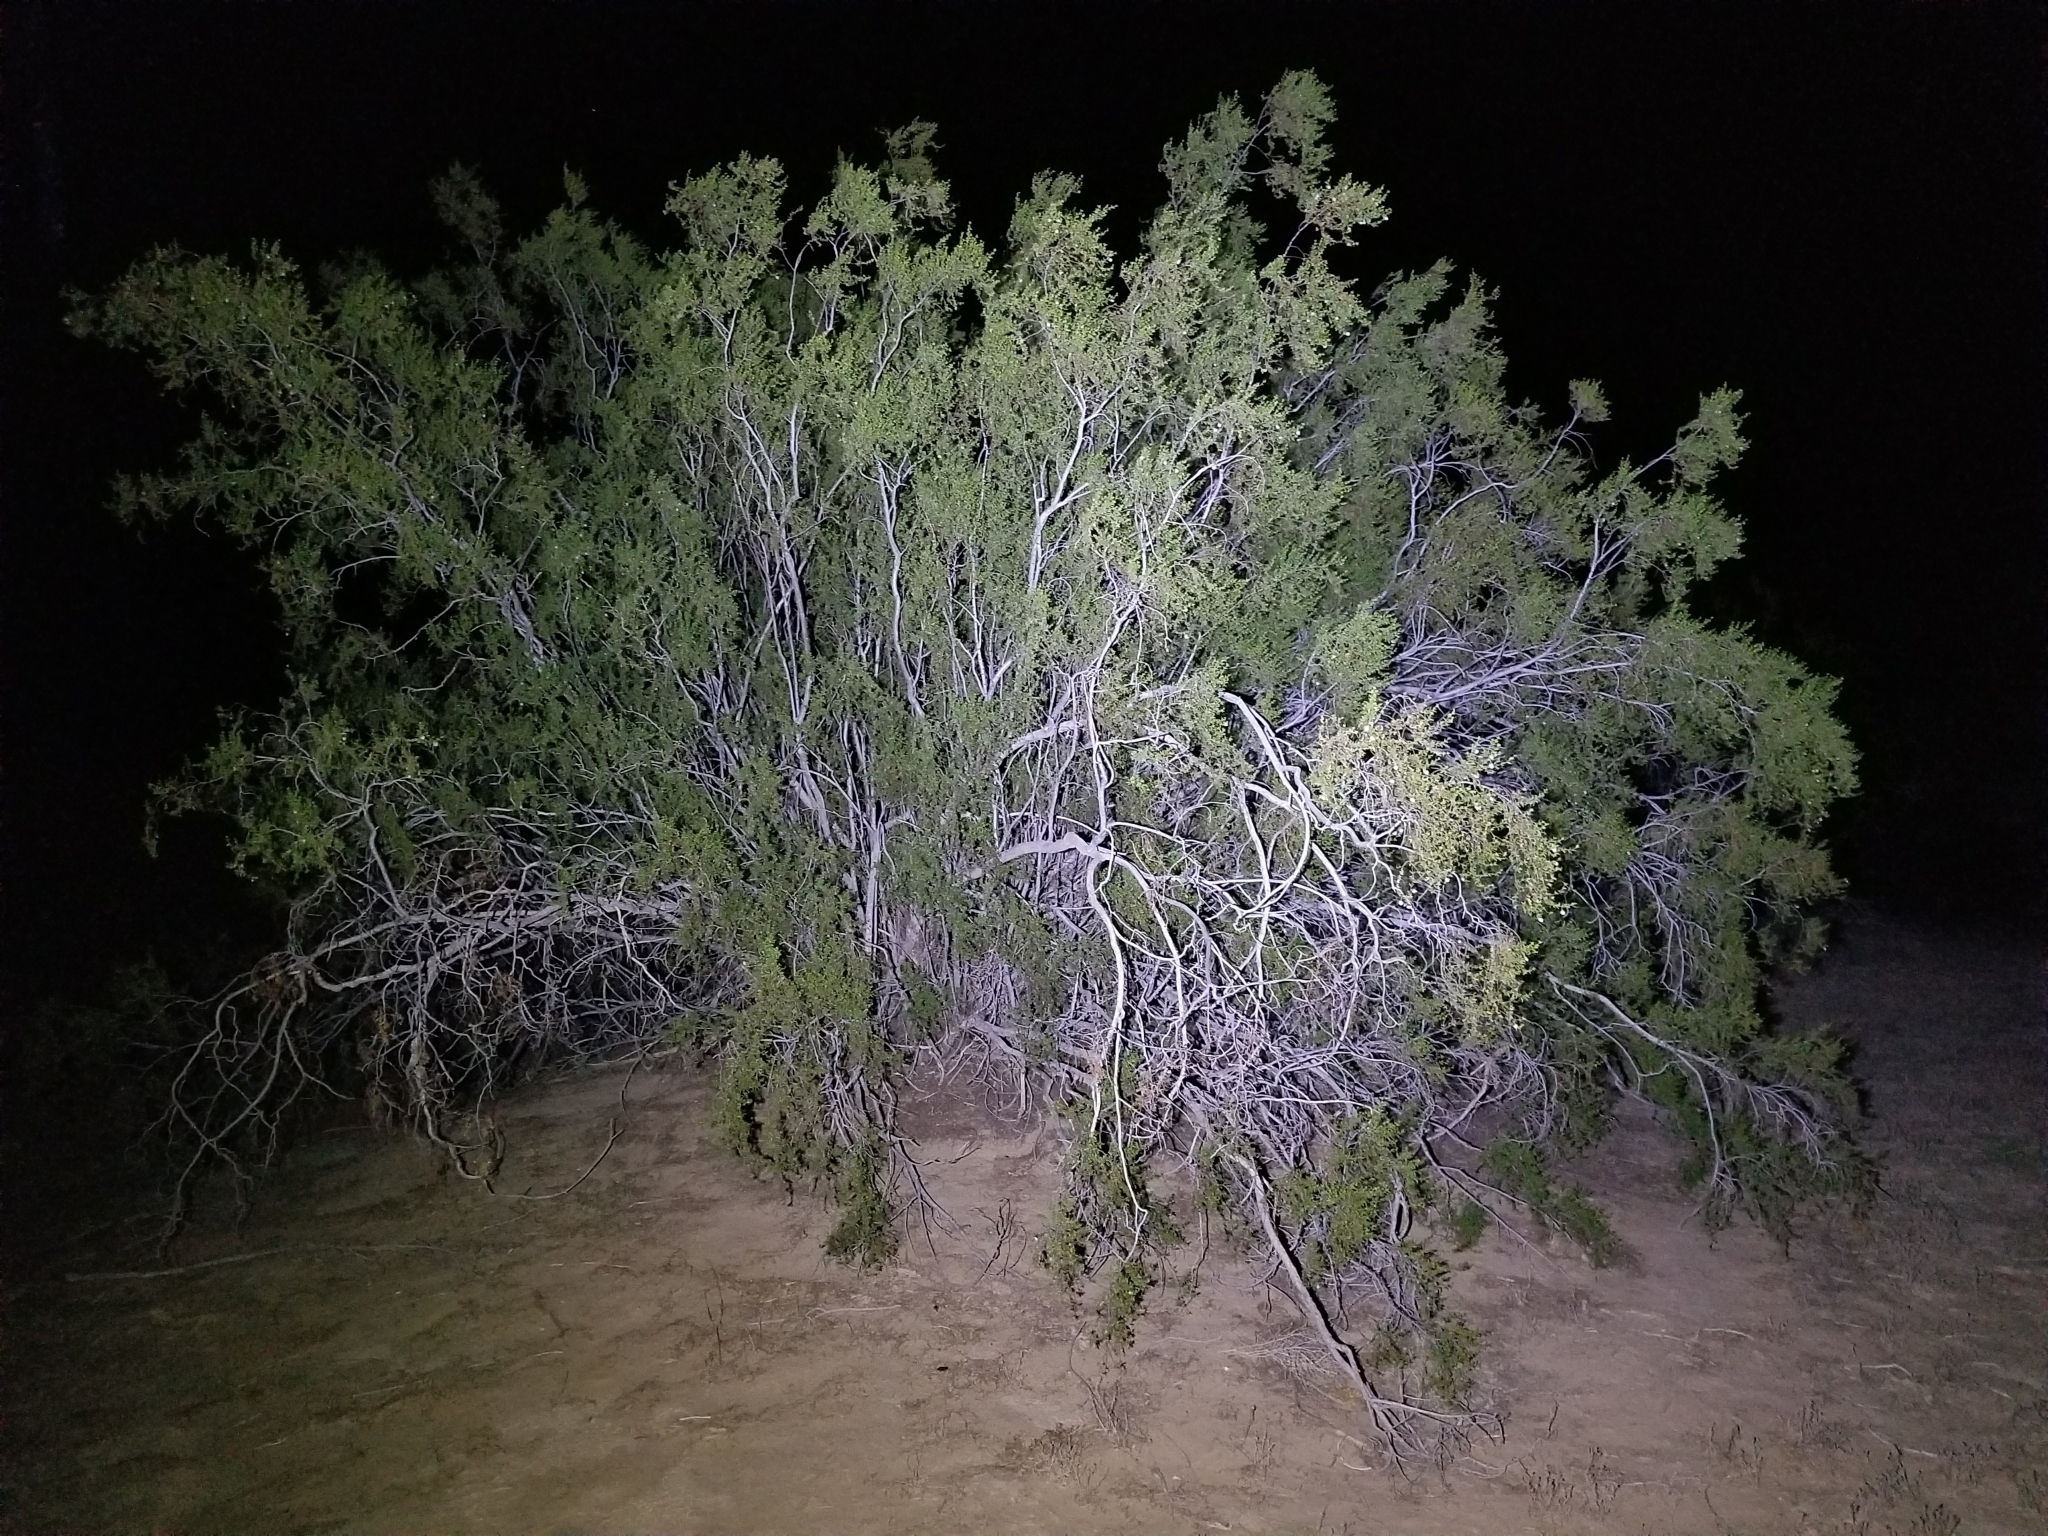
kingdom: Plantae
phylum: Tracheophyta
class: Magnoliopsida
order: Zygophyllales
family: Zygophyllaceae
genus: Larrea
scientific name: Larrea tridentata
